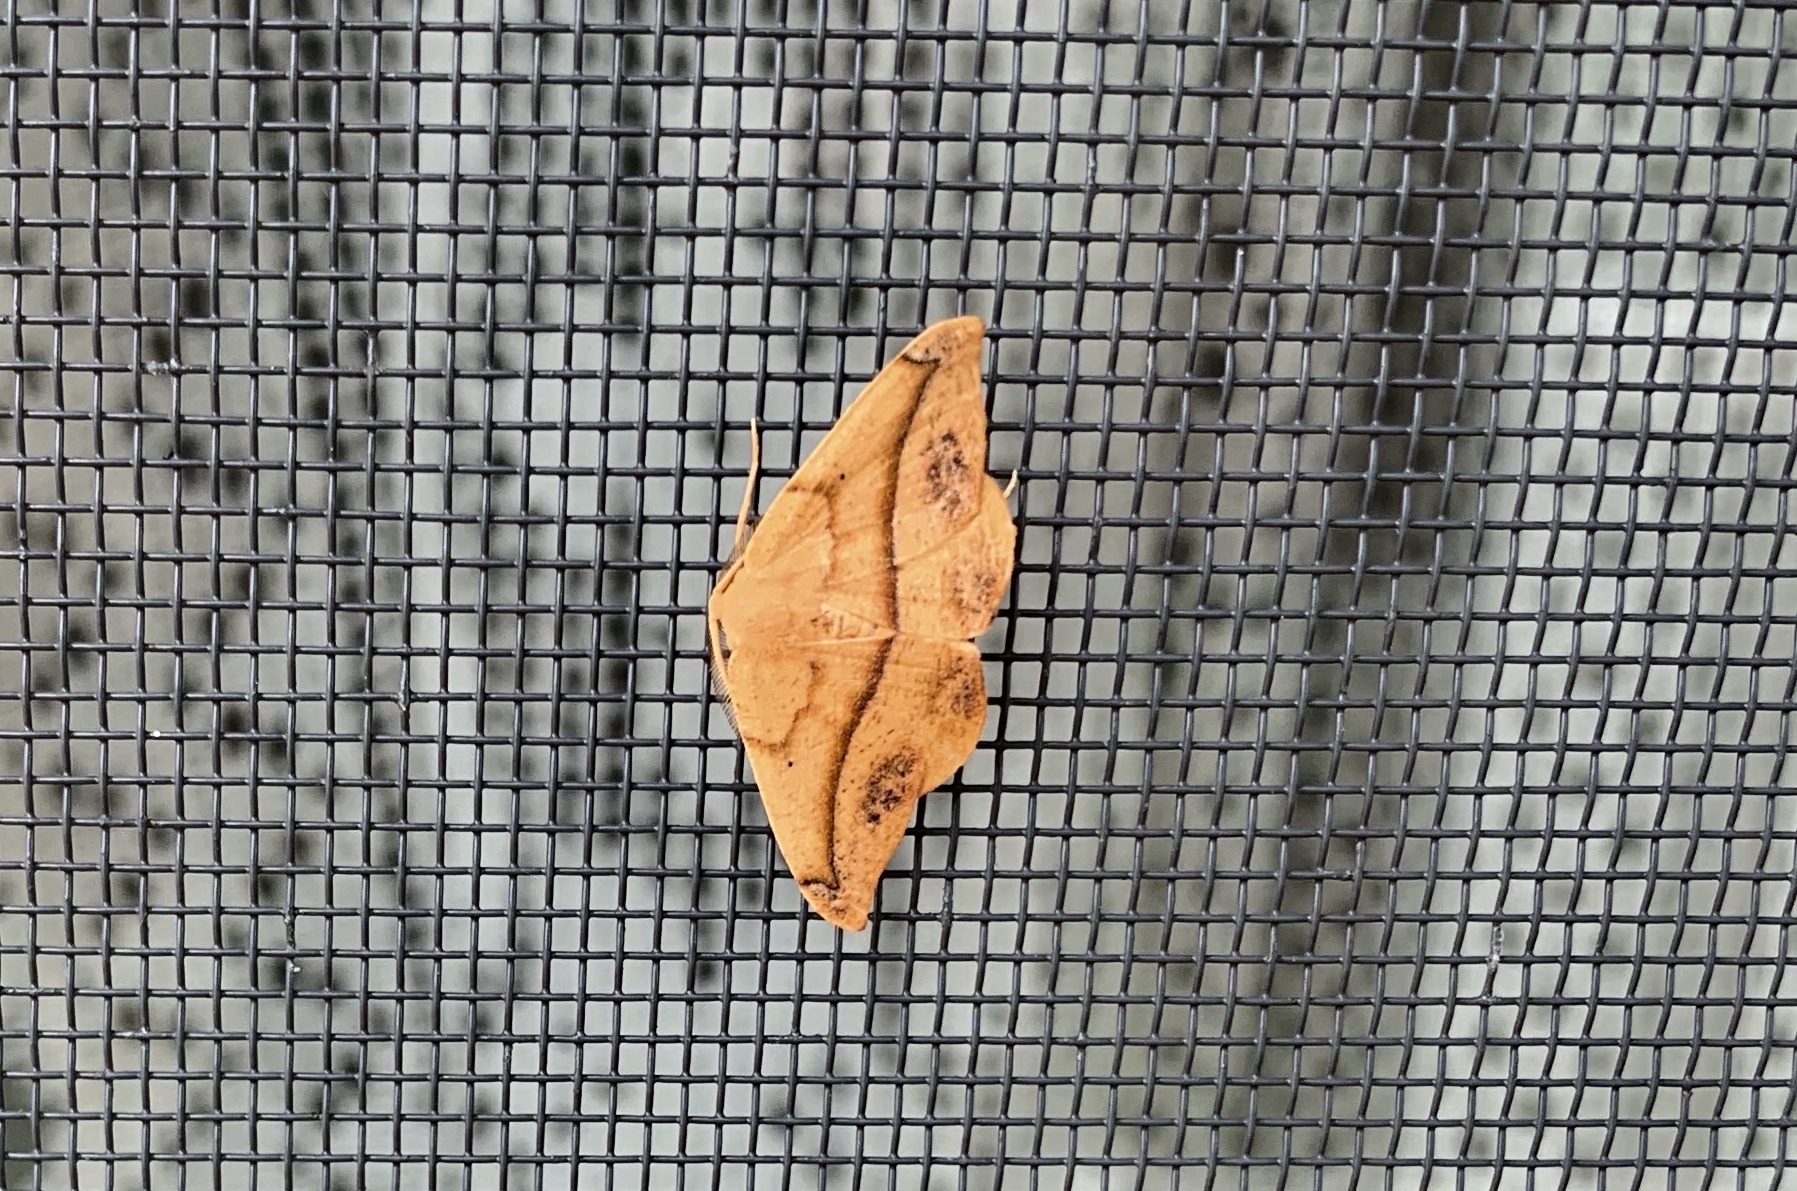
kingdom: Animalia
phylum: Arthropoda
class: Insecta
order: Lepidoptera
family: Geometridae
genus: Patalene
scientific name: Patalene olyzonaria
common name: Juniper geometer moth
